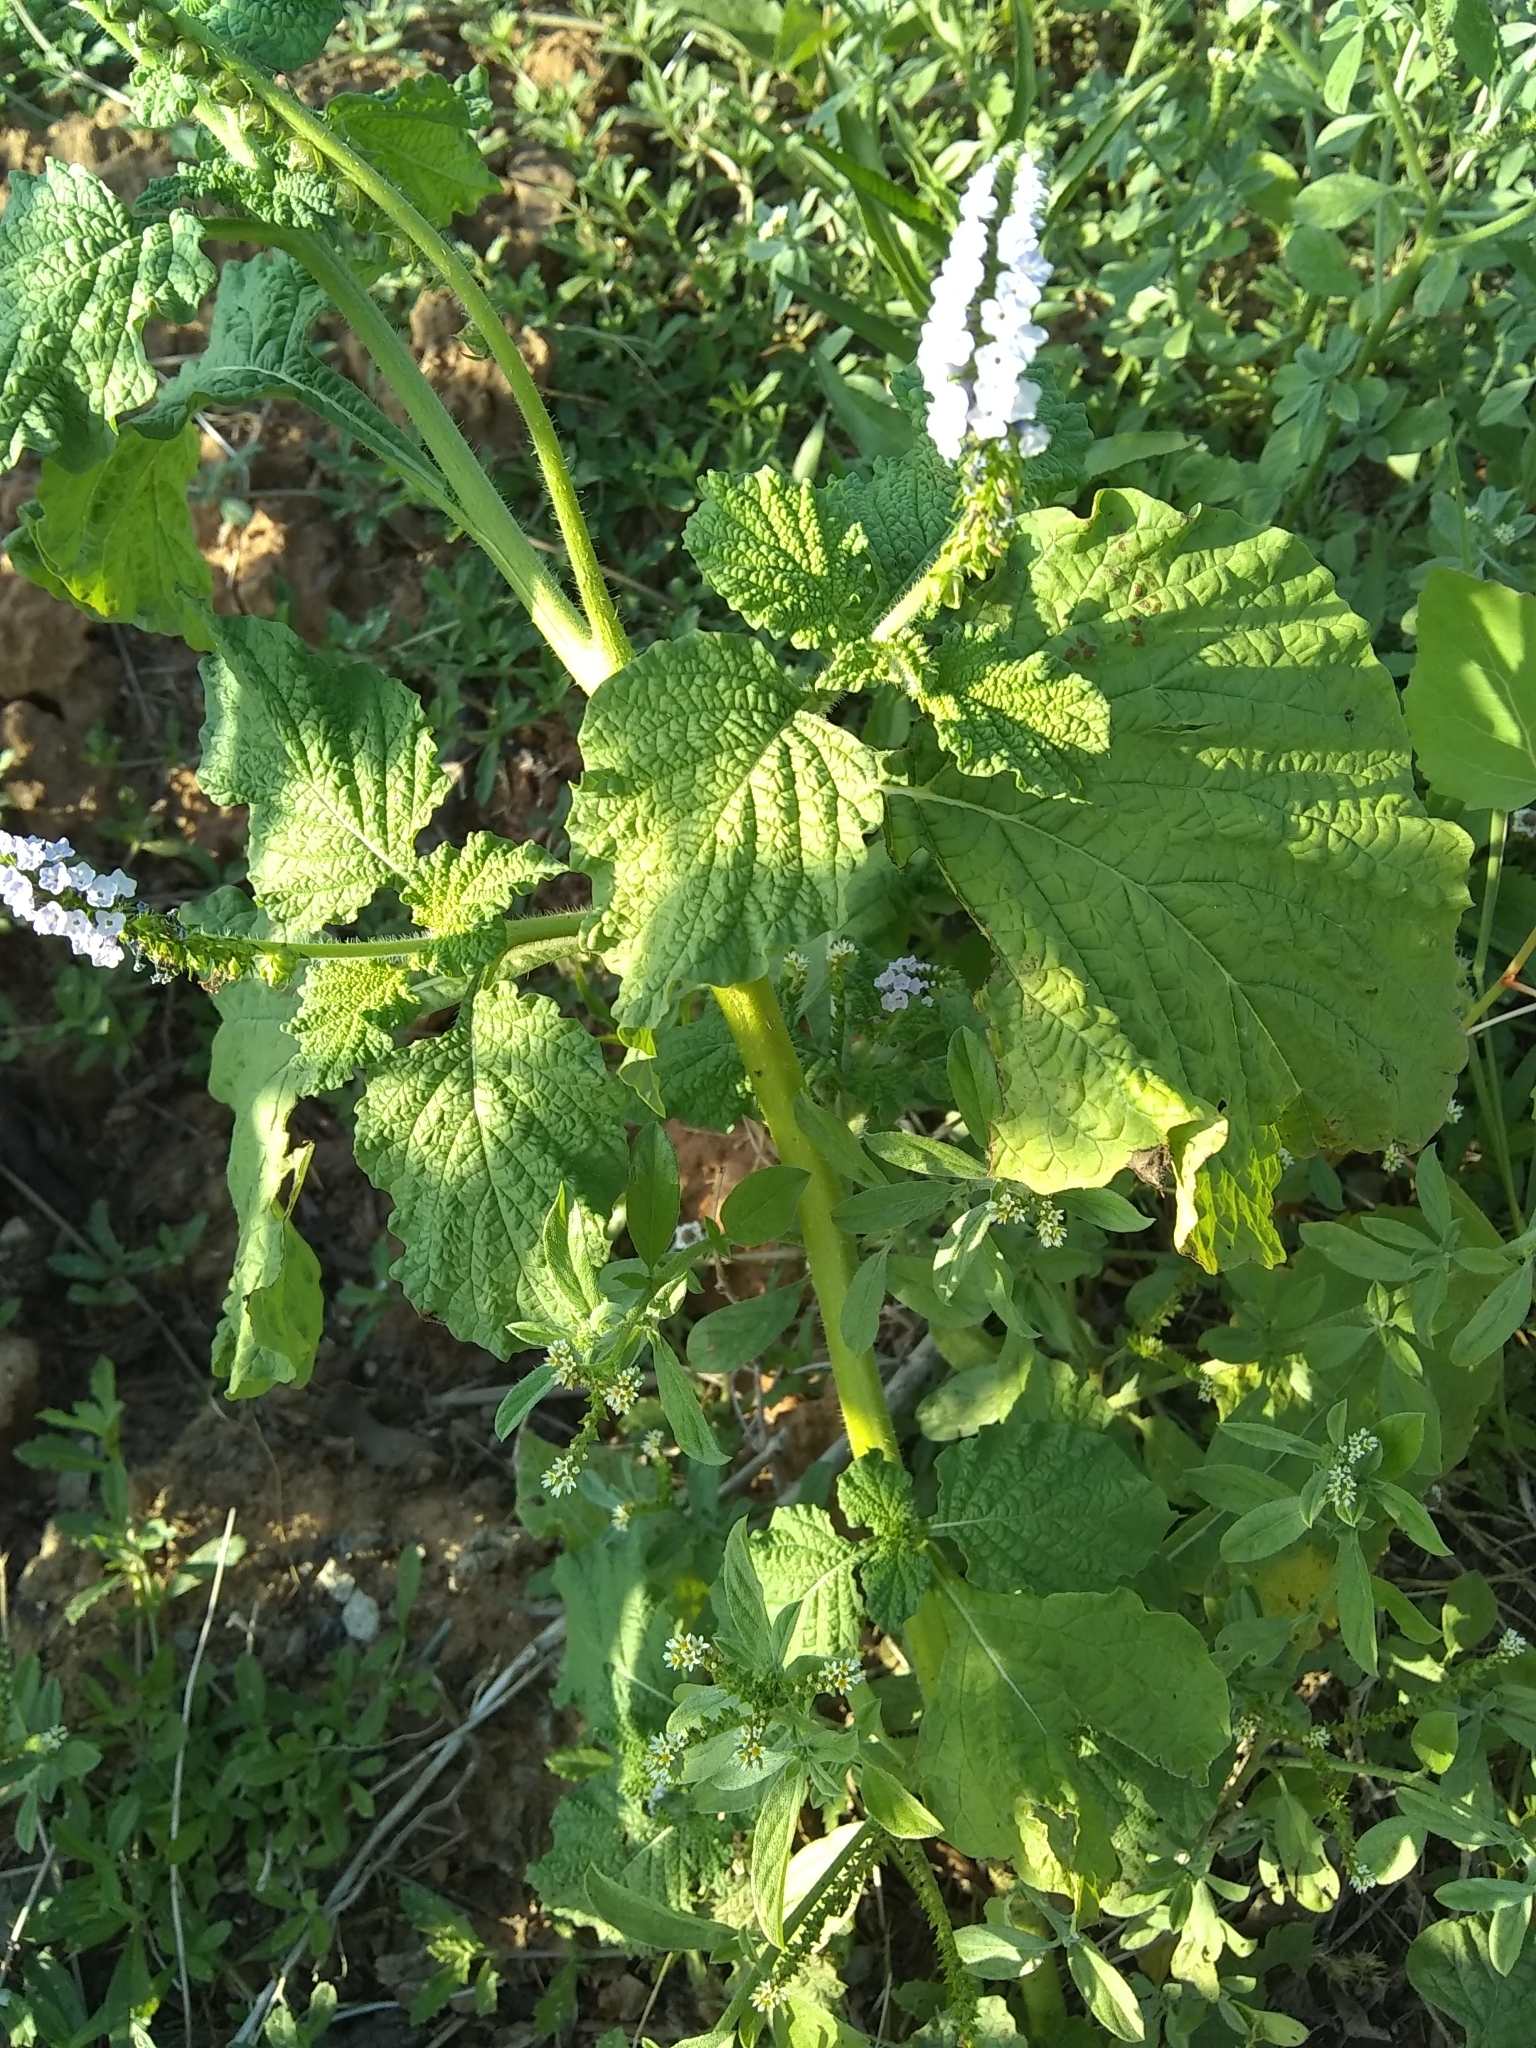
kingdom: Plantae
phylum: Tracheophyta
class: Magnoliopsida
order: Boraginales
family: Heliotropiaceae
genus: Heliotropium
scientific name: Heliotropium indicum
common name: Indian heliotrope
